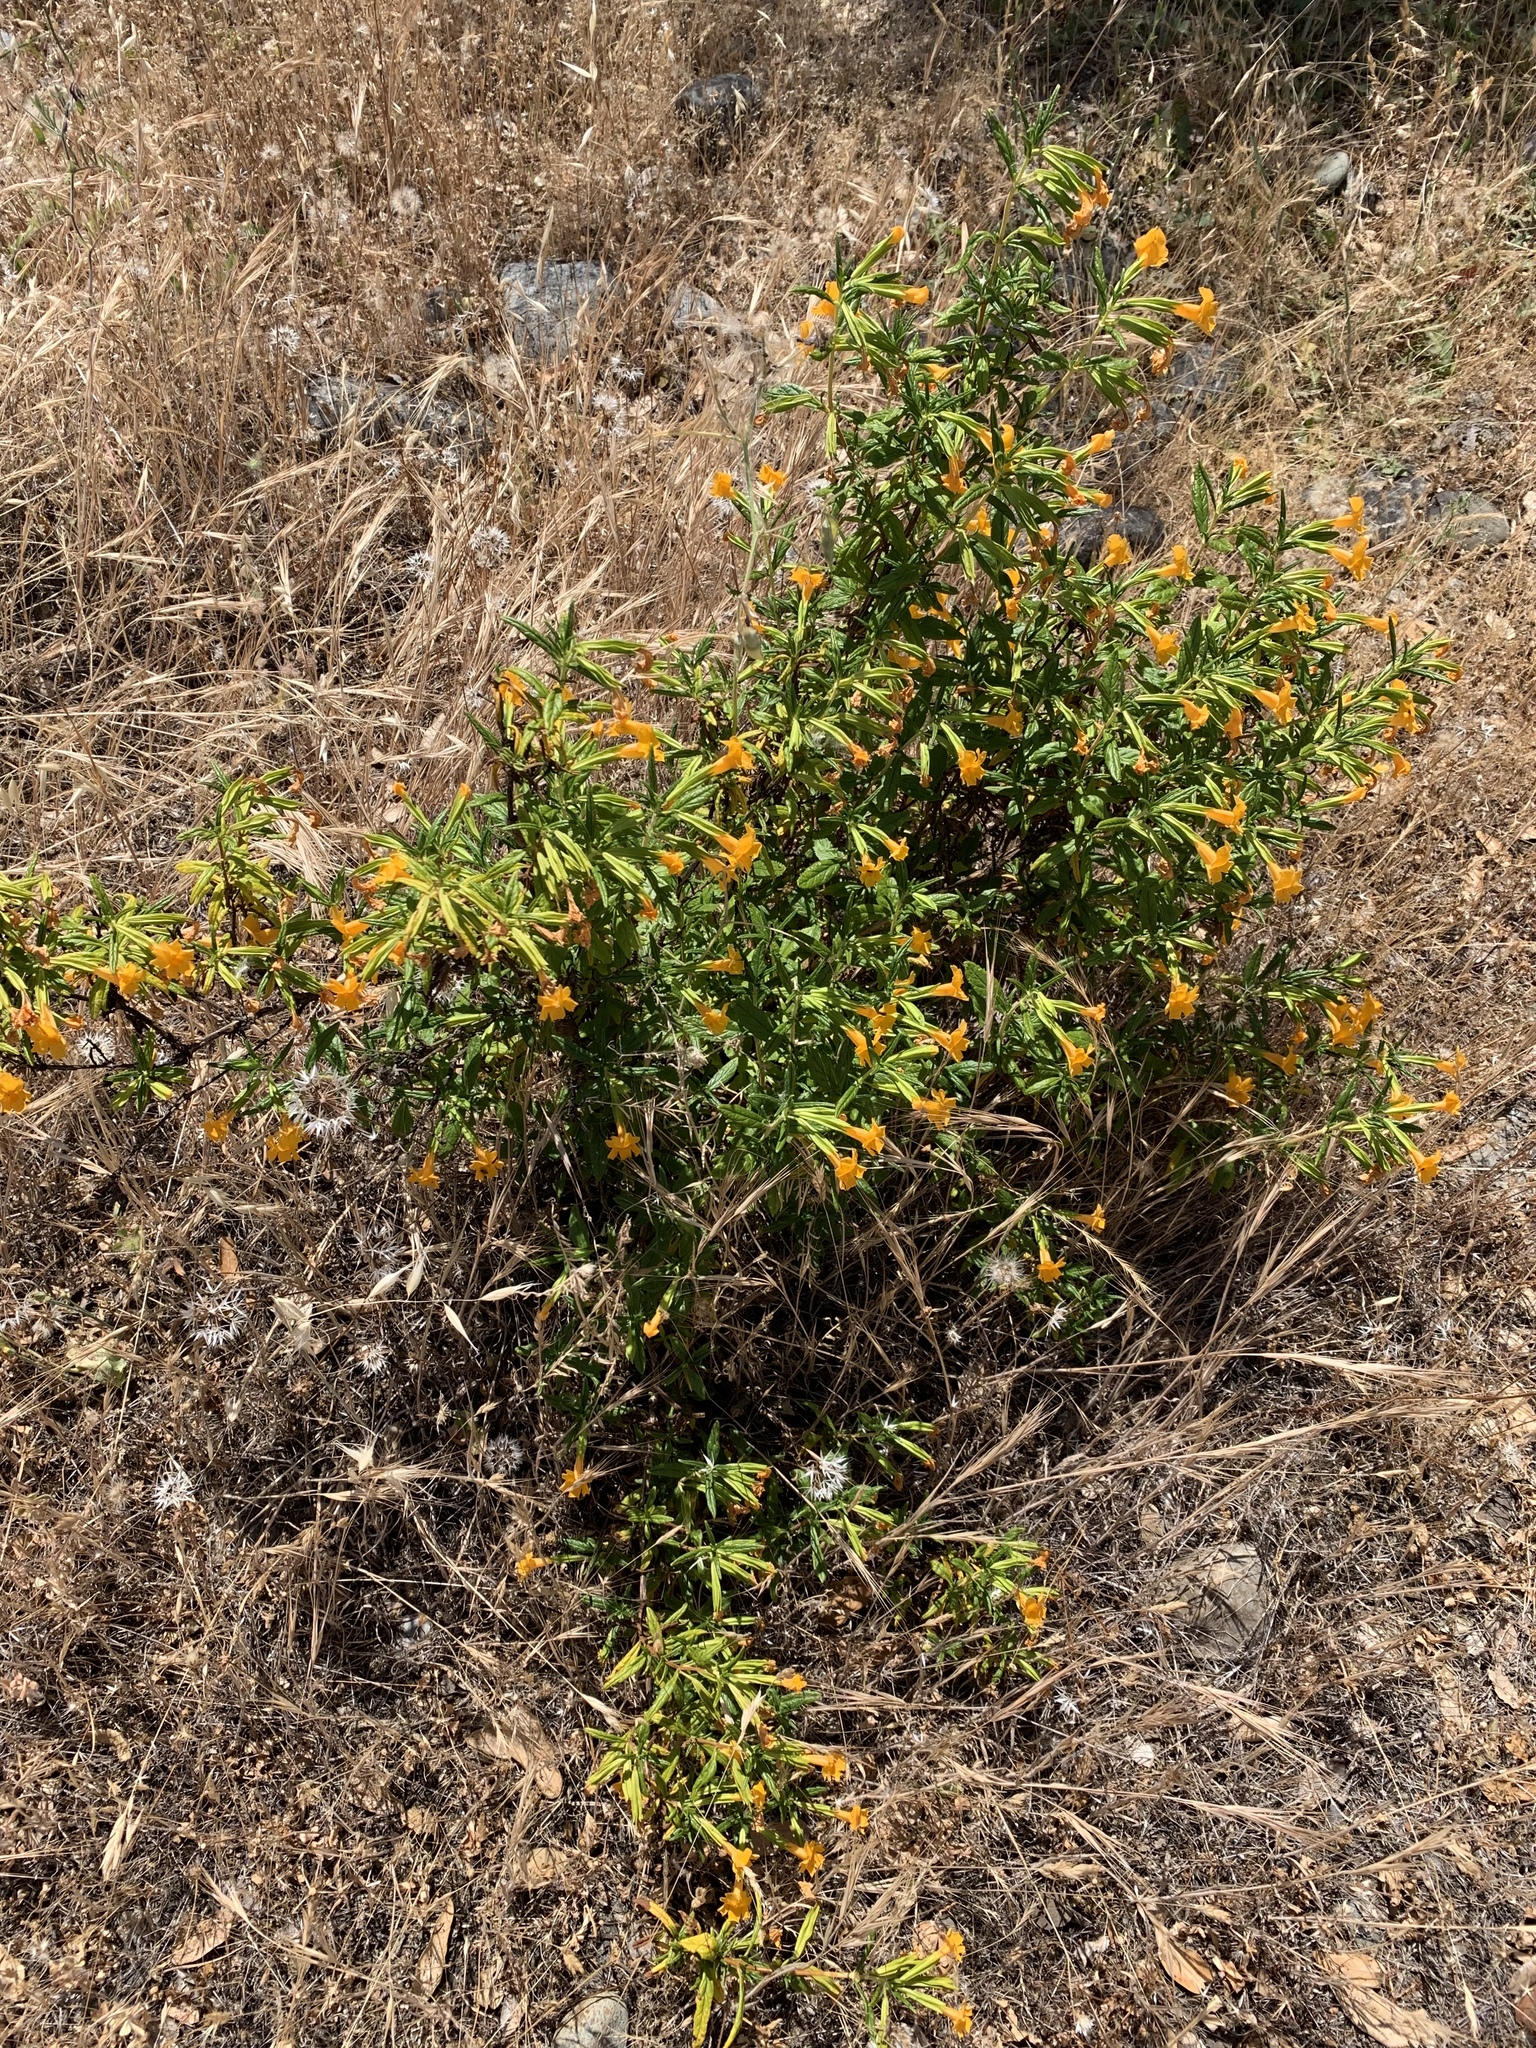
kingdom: Plantae
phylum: Tracheophyta
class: Magnoliopsida
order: Lamiales
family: Phrymaceae
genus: Diplacus
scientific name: Diplacus aurantiacus
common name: Bush monkey-flower
